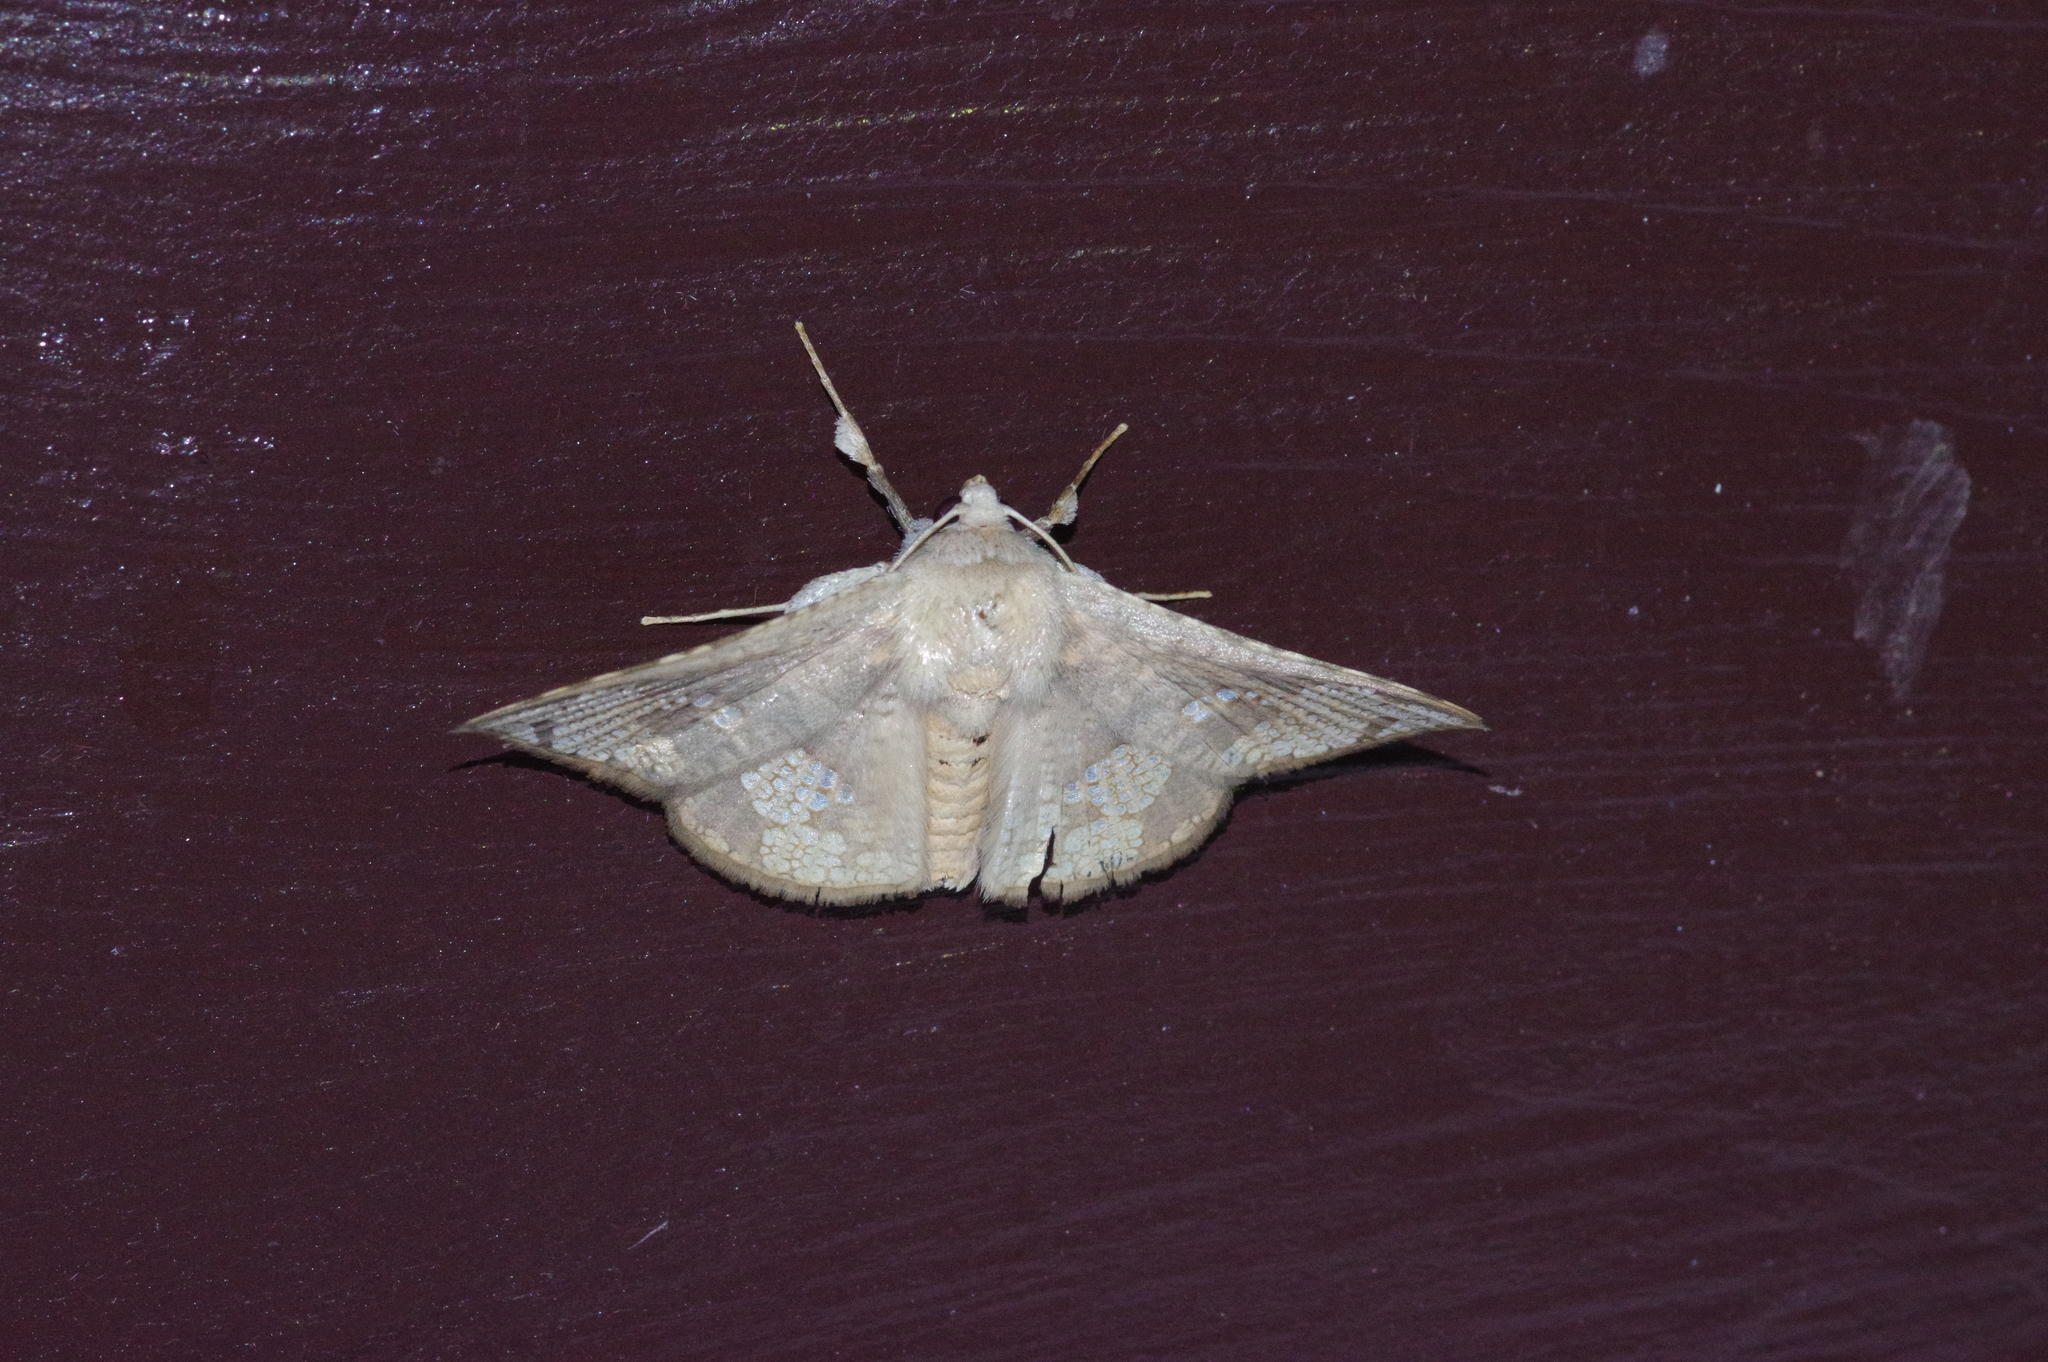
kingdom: Animalia
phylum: Arthropoda
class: Insecta
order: Lepidoptera
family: Thyrididae
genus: Canaea
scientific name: Canaea ryukyuensis
